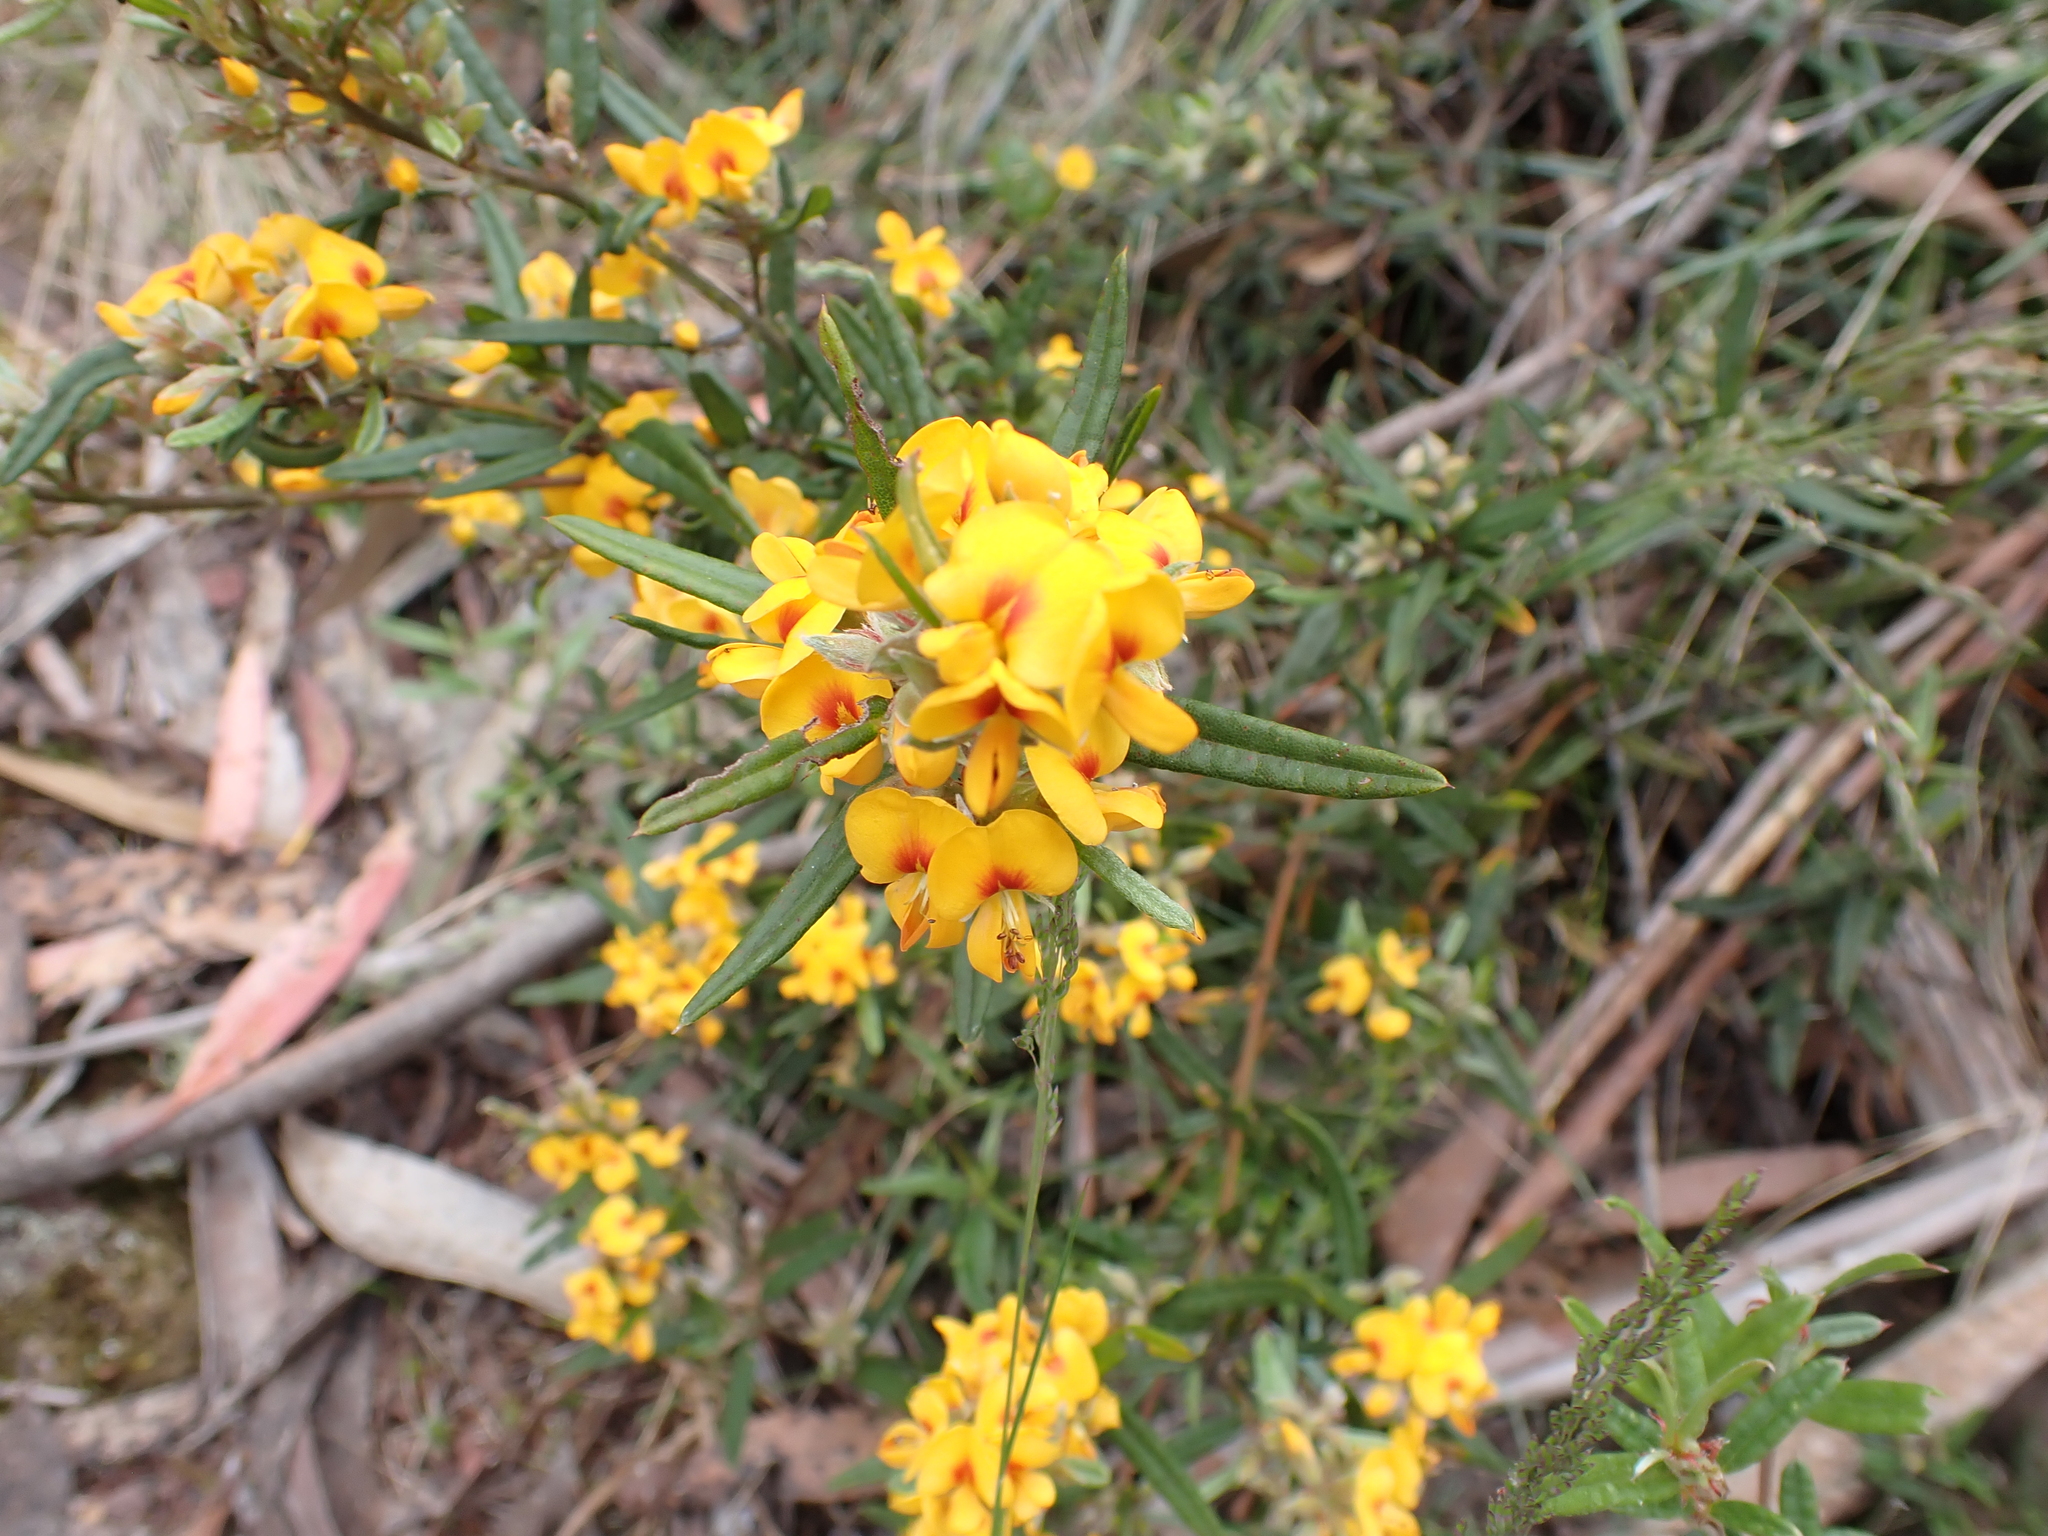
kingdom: Plantae
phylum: Tracheophyta
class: Magnoliopsida
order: Fabales
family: Fabaceae
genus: Podolobium
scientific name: Podolobium alpestre
